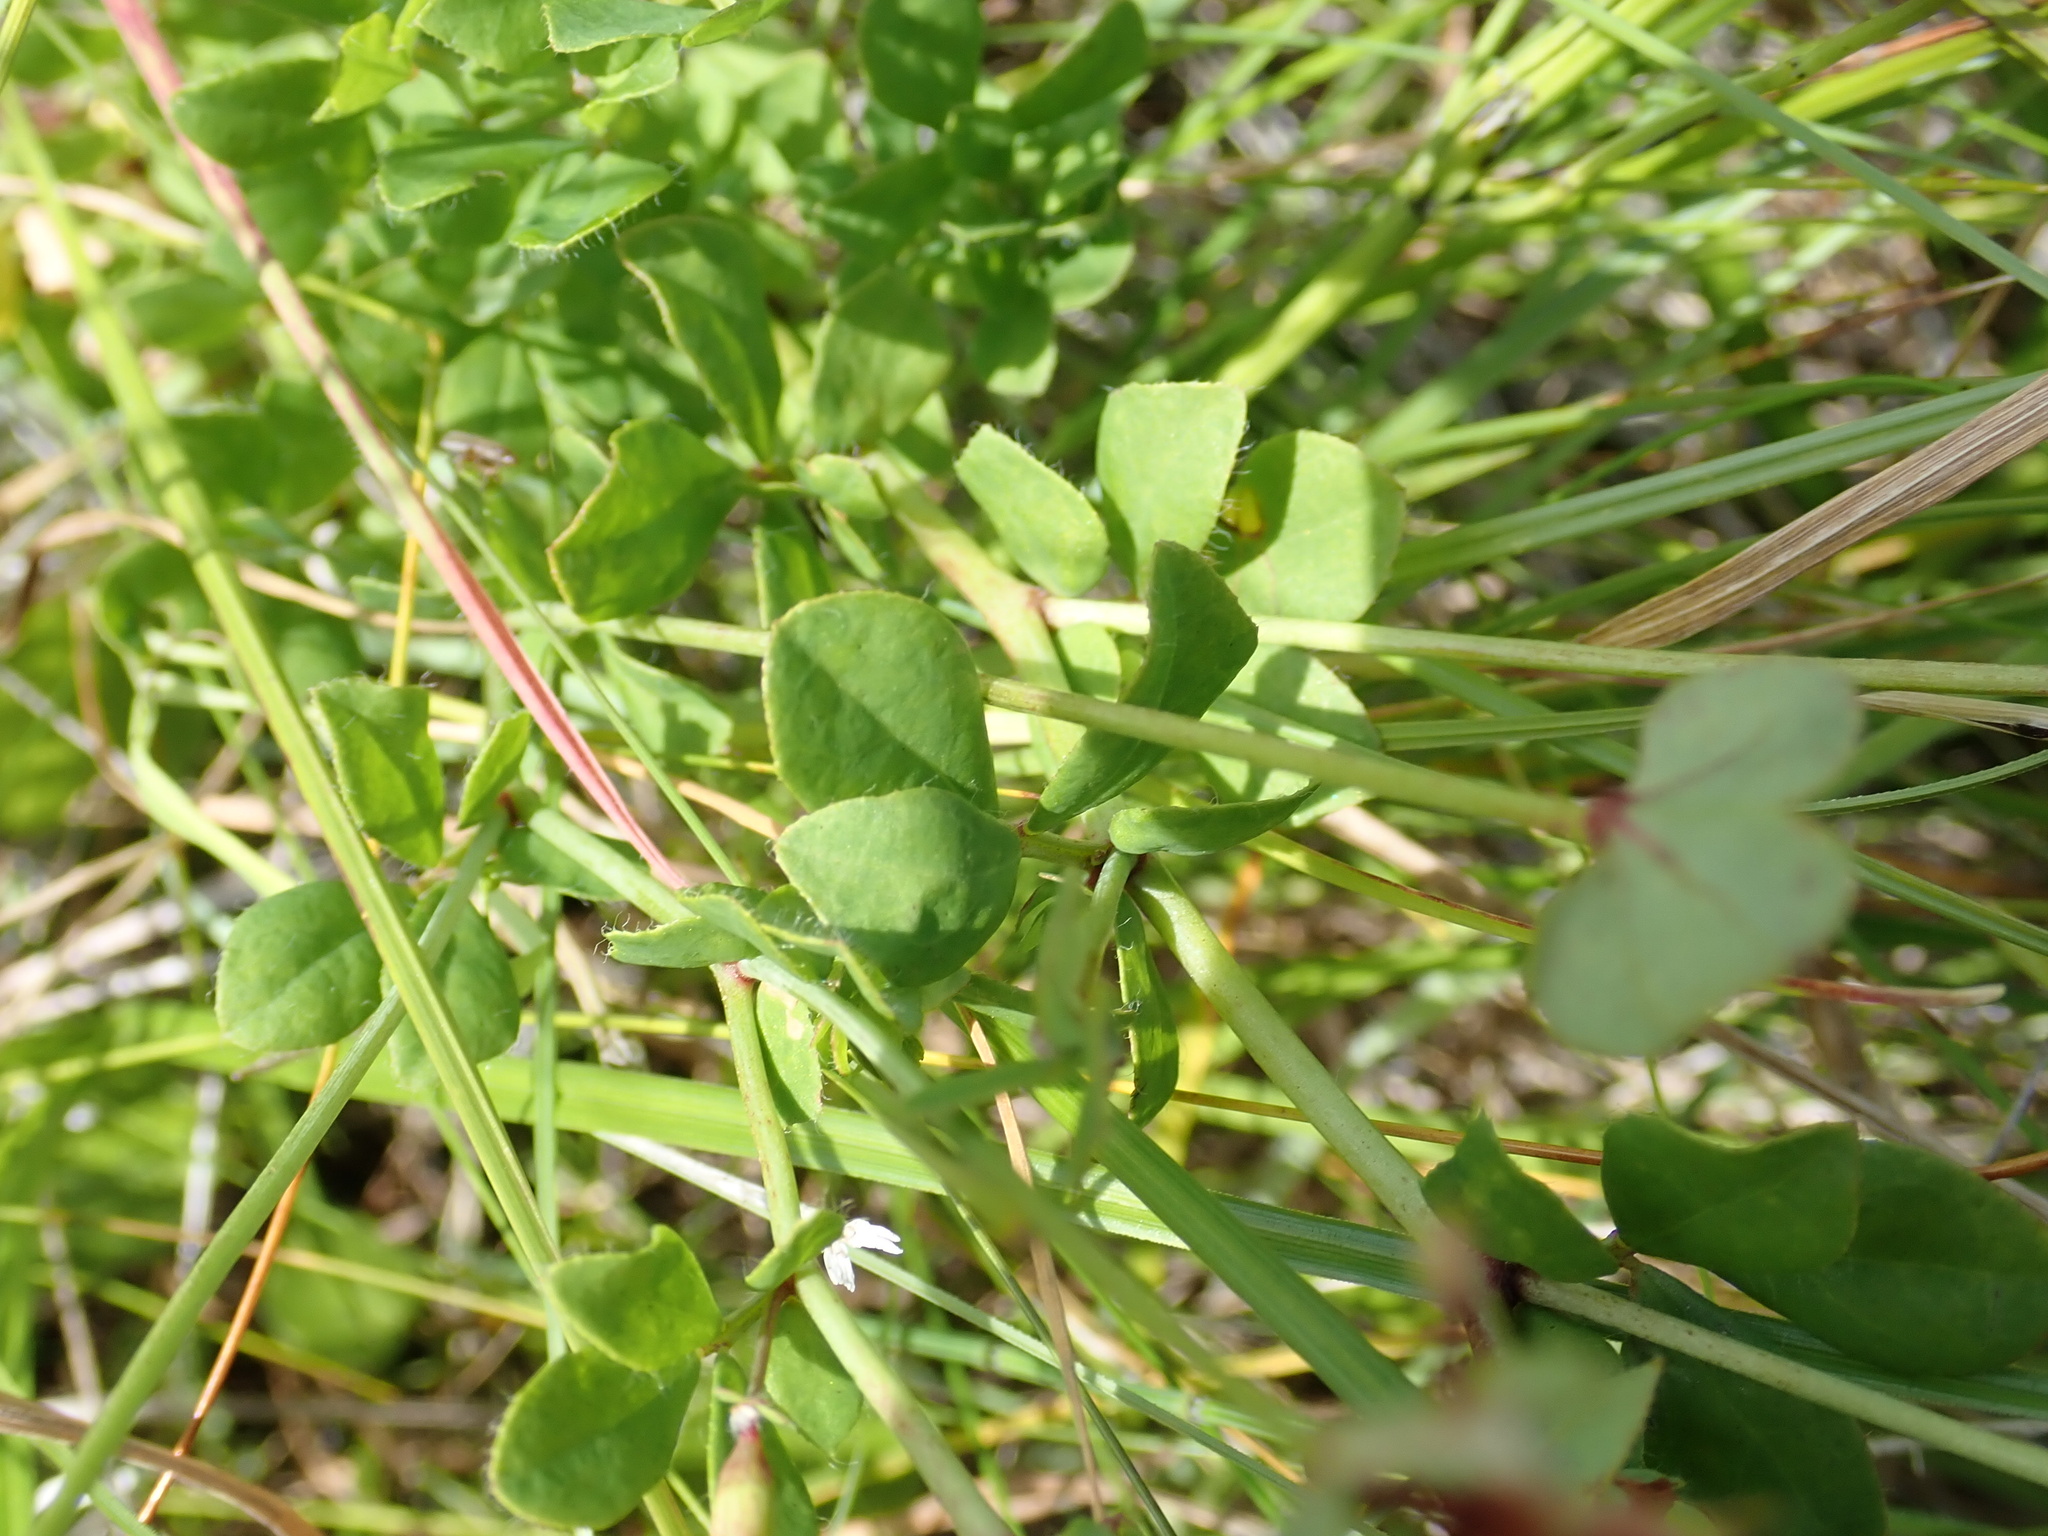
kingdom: Plantae
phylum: Tracheophyta
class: Magnoliopsida
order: Fabales
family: Fabaceae
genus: Lotus
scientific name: Lotus pedunculatus
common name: Greater birdsfoot-trefoil
